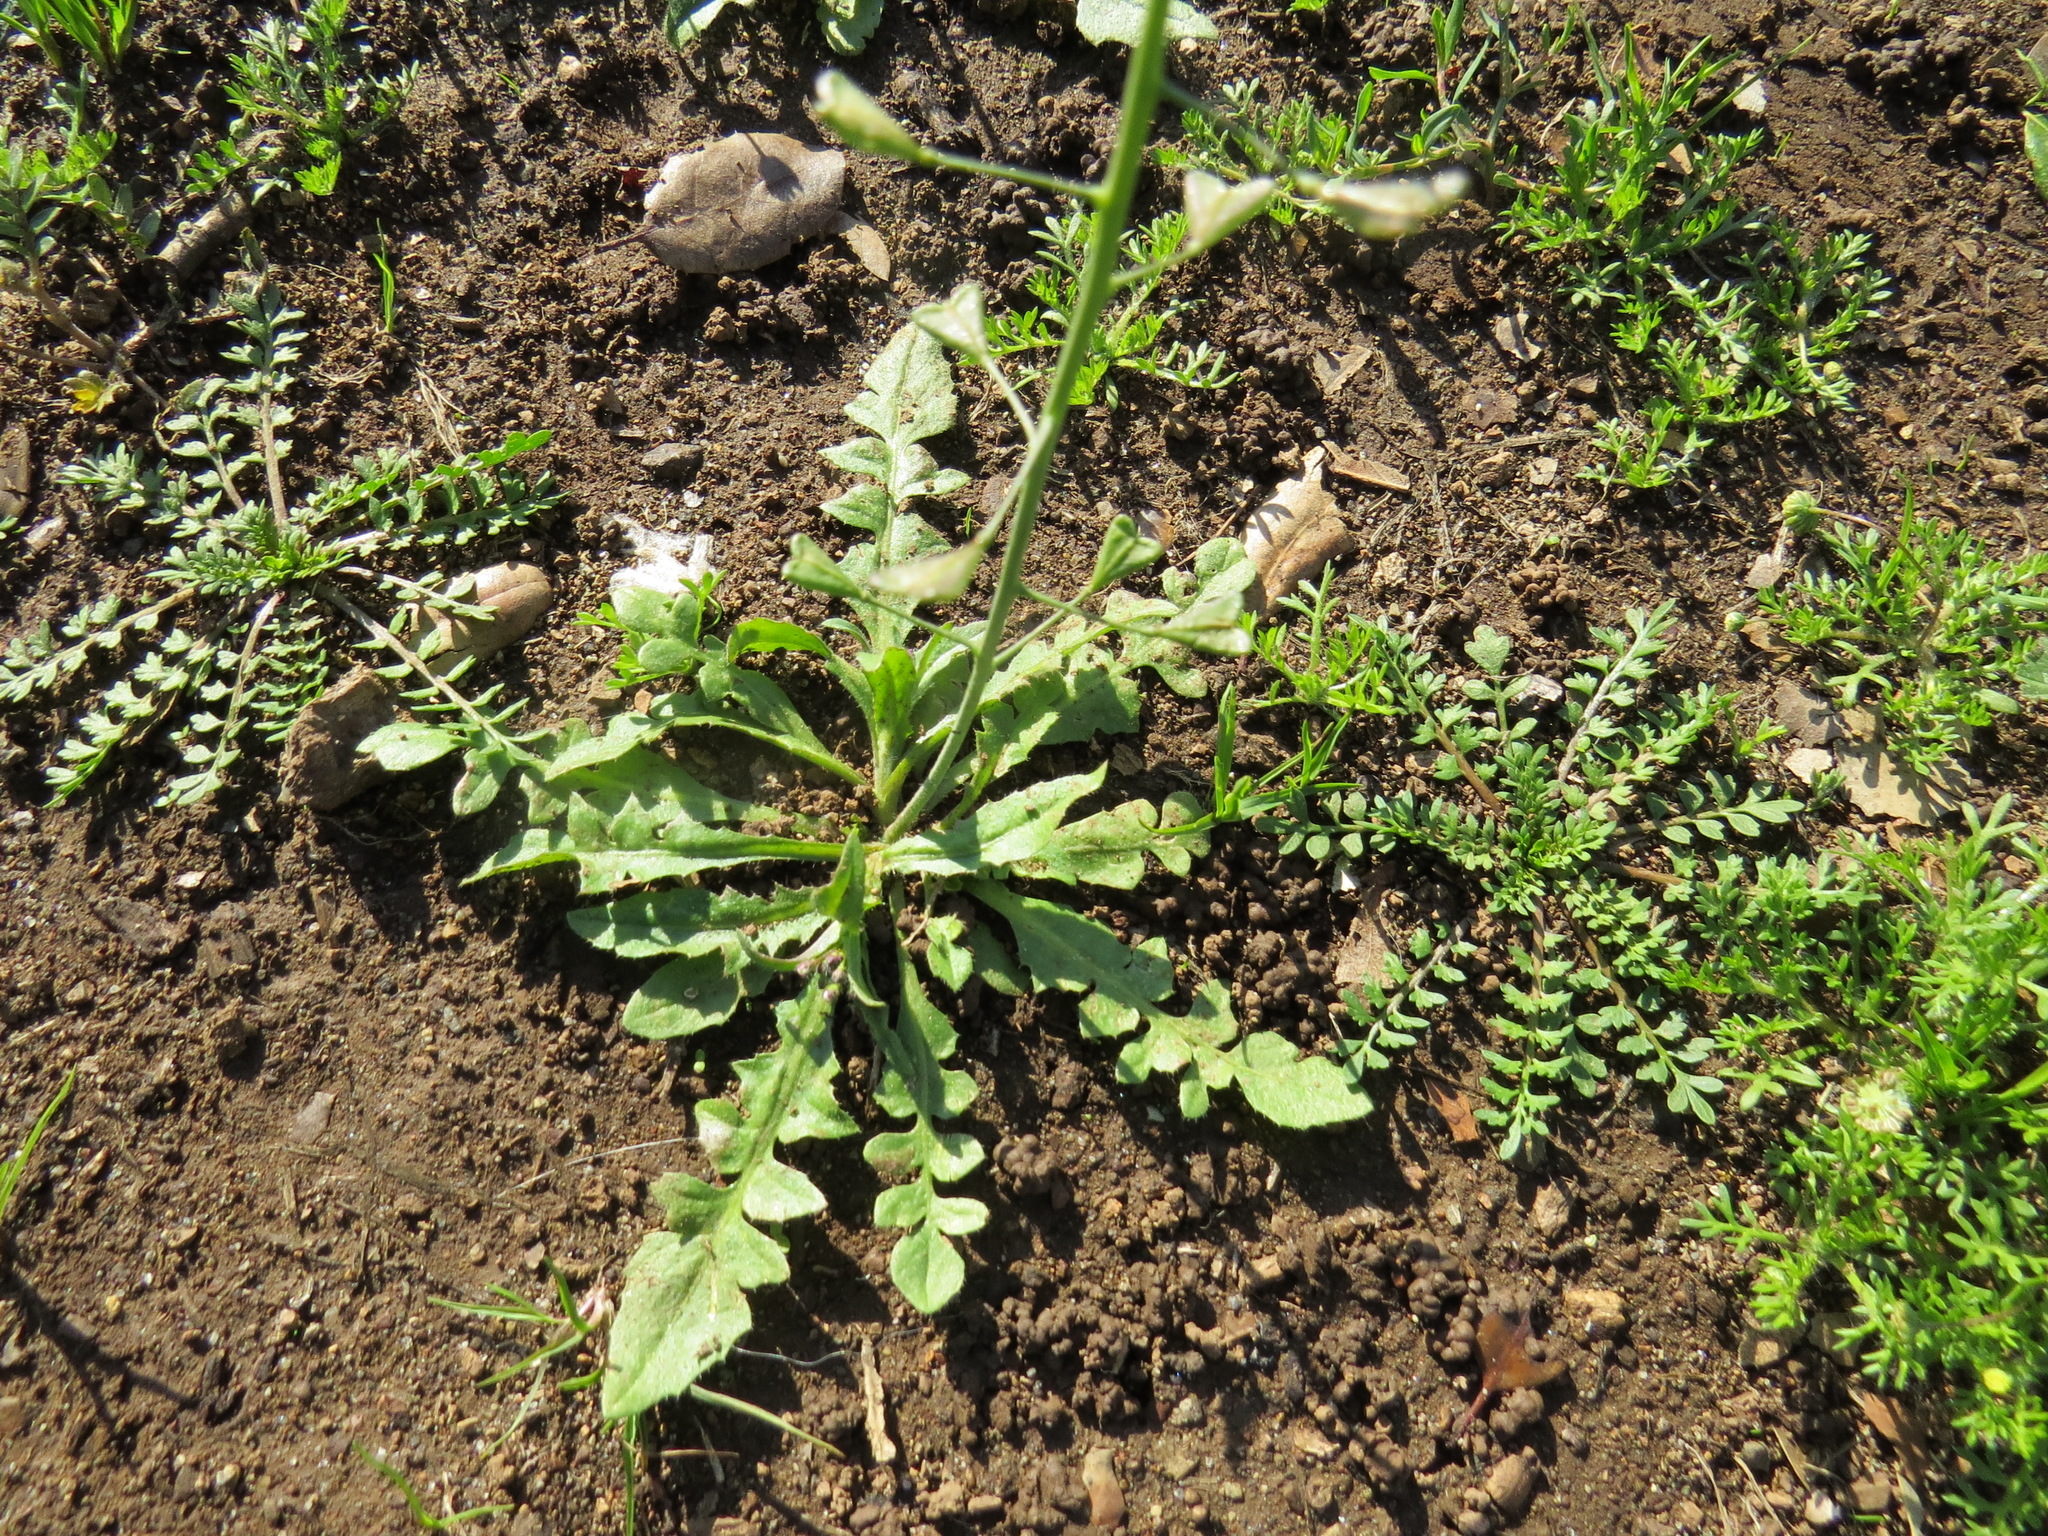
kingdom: Plantae
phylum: Tracheophyta
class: Magnoliopsida
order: Brassicales
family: Brassicaceae
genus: Capsella
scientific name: Capsella bursa-pastoris
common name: Shepherd's purse
